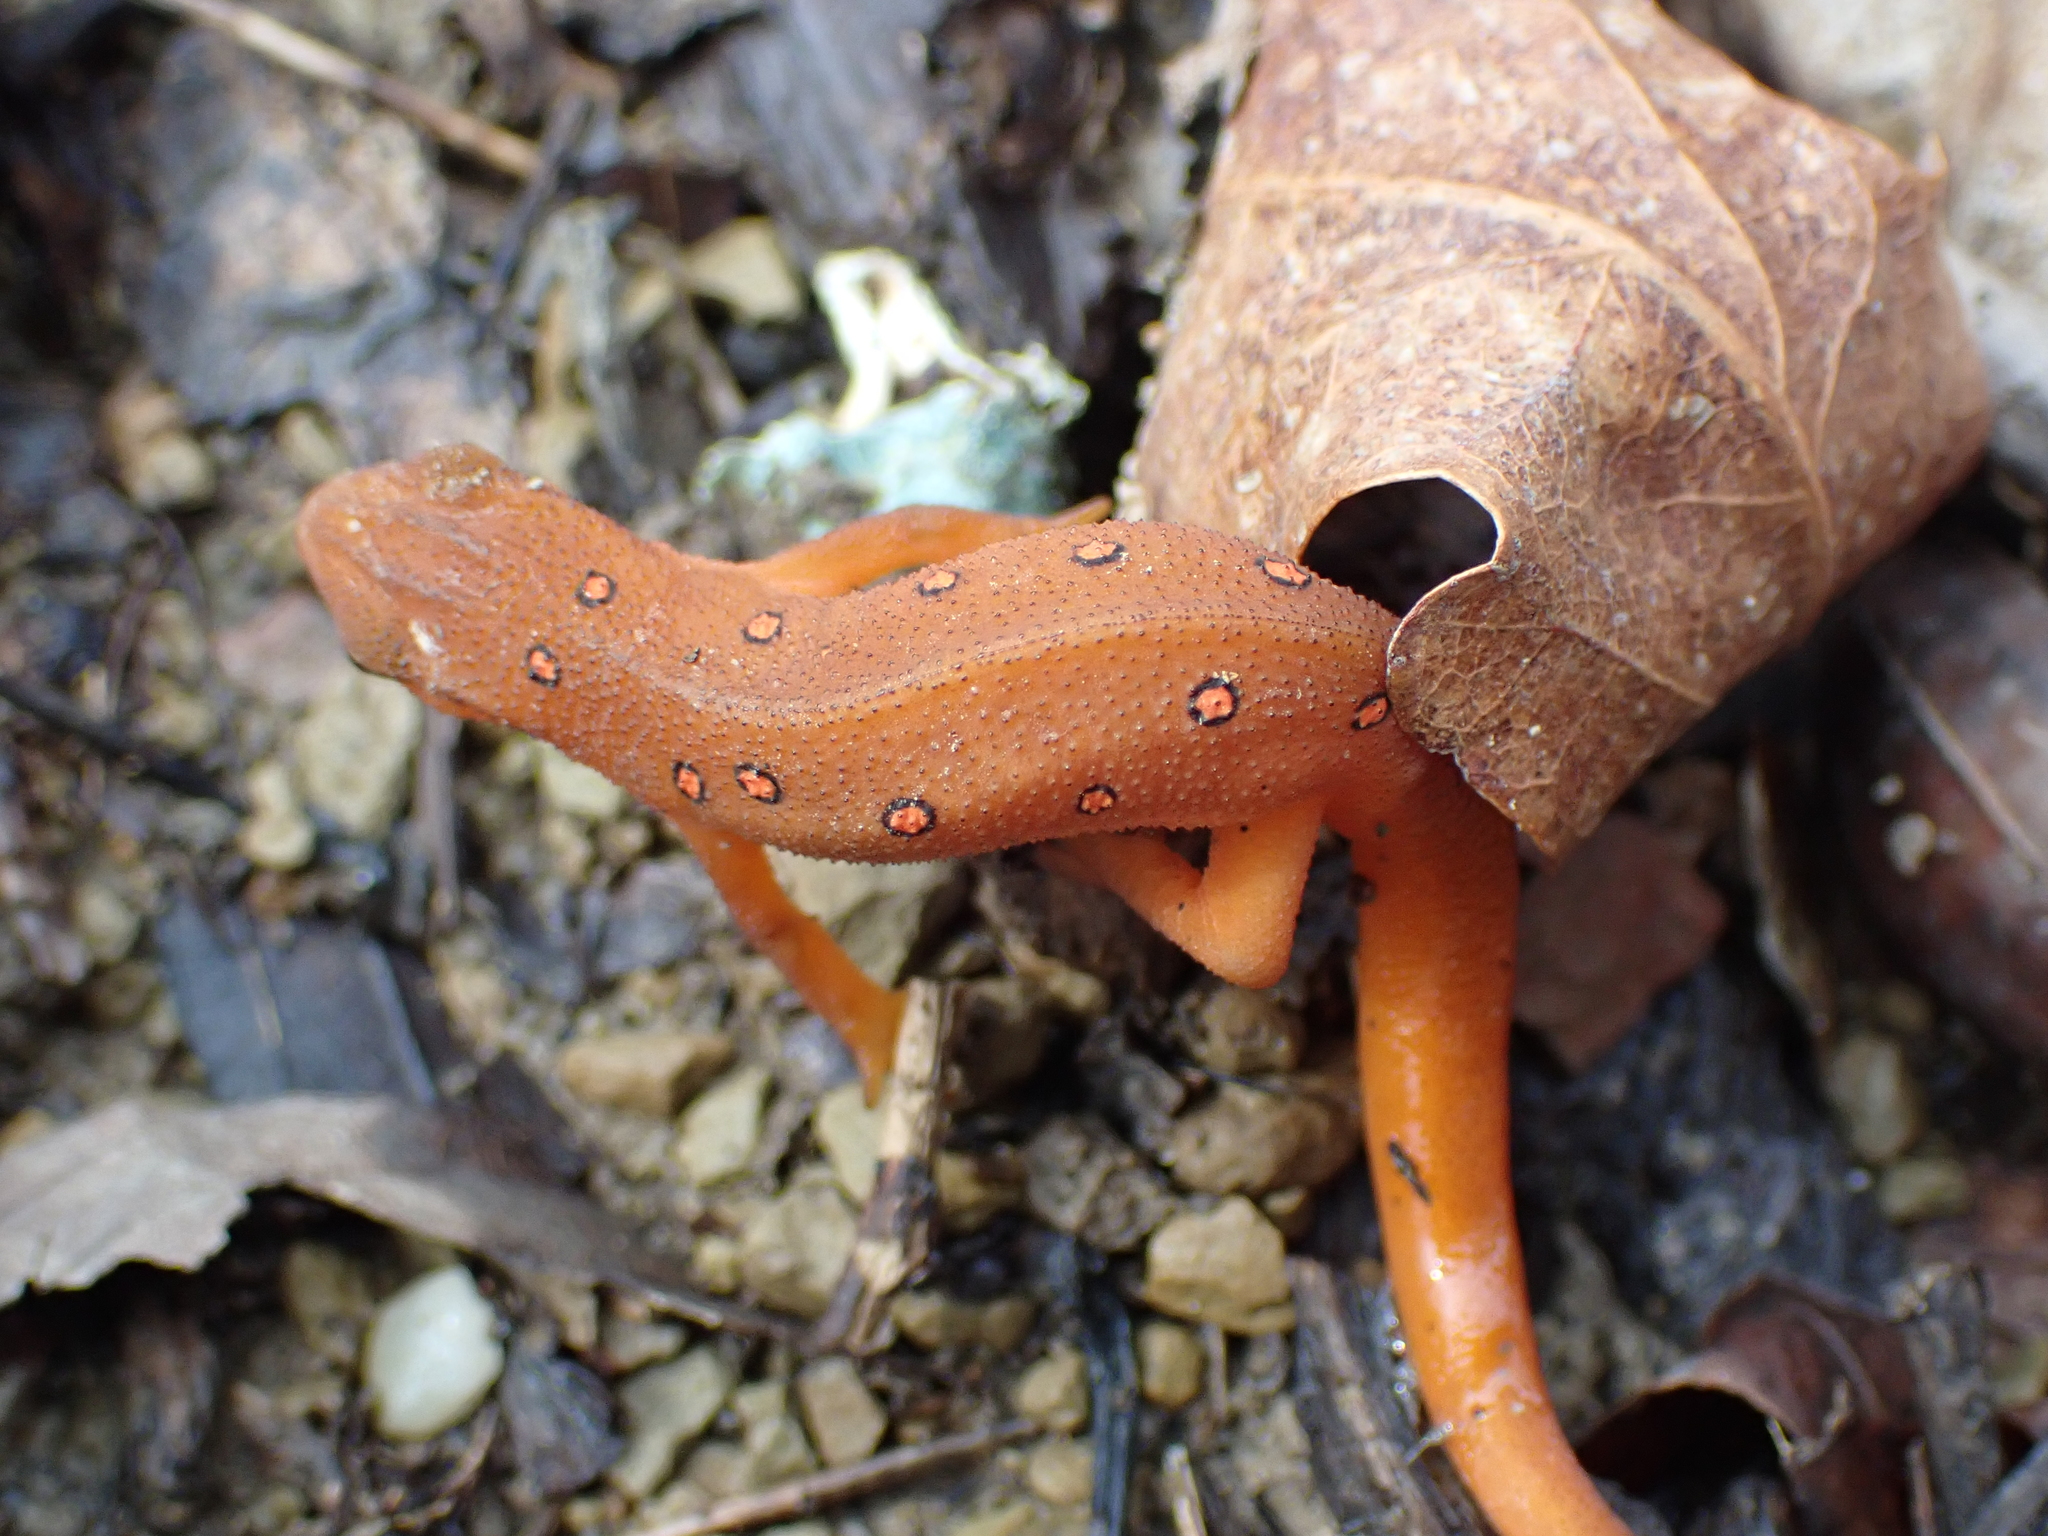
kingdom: Animalia
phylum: Chordata
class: Amphibia
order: Caudata
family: Salamandridae
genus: Notophthalmus
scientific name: Notophthalmus viridescens
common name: Eastern newt
